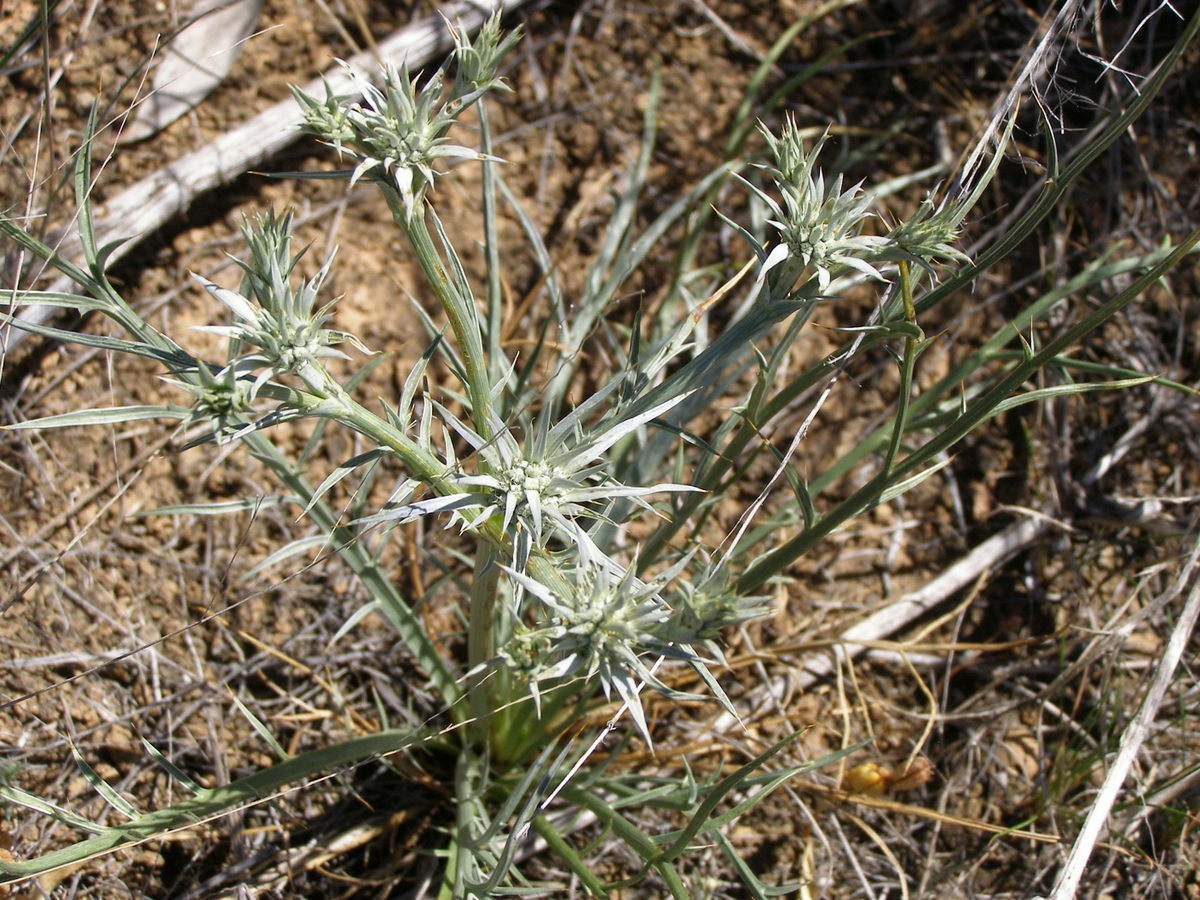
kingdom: Plantae
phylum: Tracheophyta
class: Magnoliopsida
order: Apiales
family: Apiaceae
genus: Eryngium
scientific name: Eryngium ovinum
